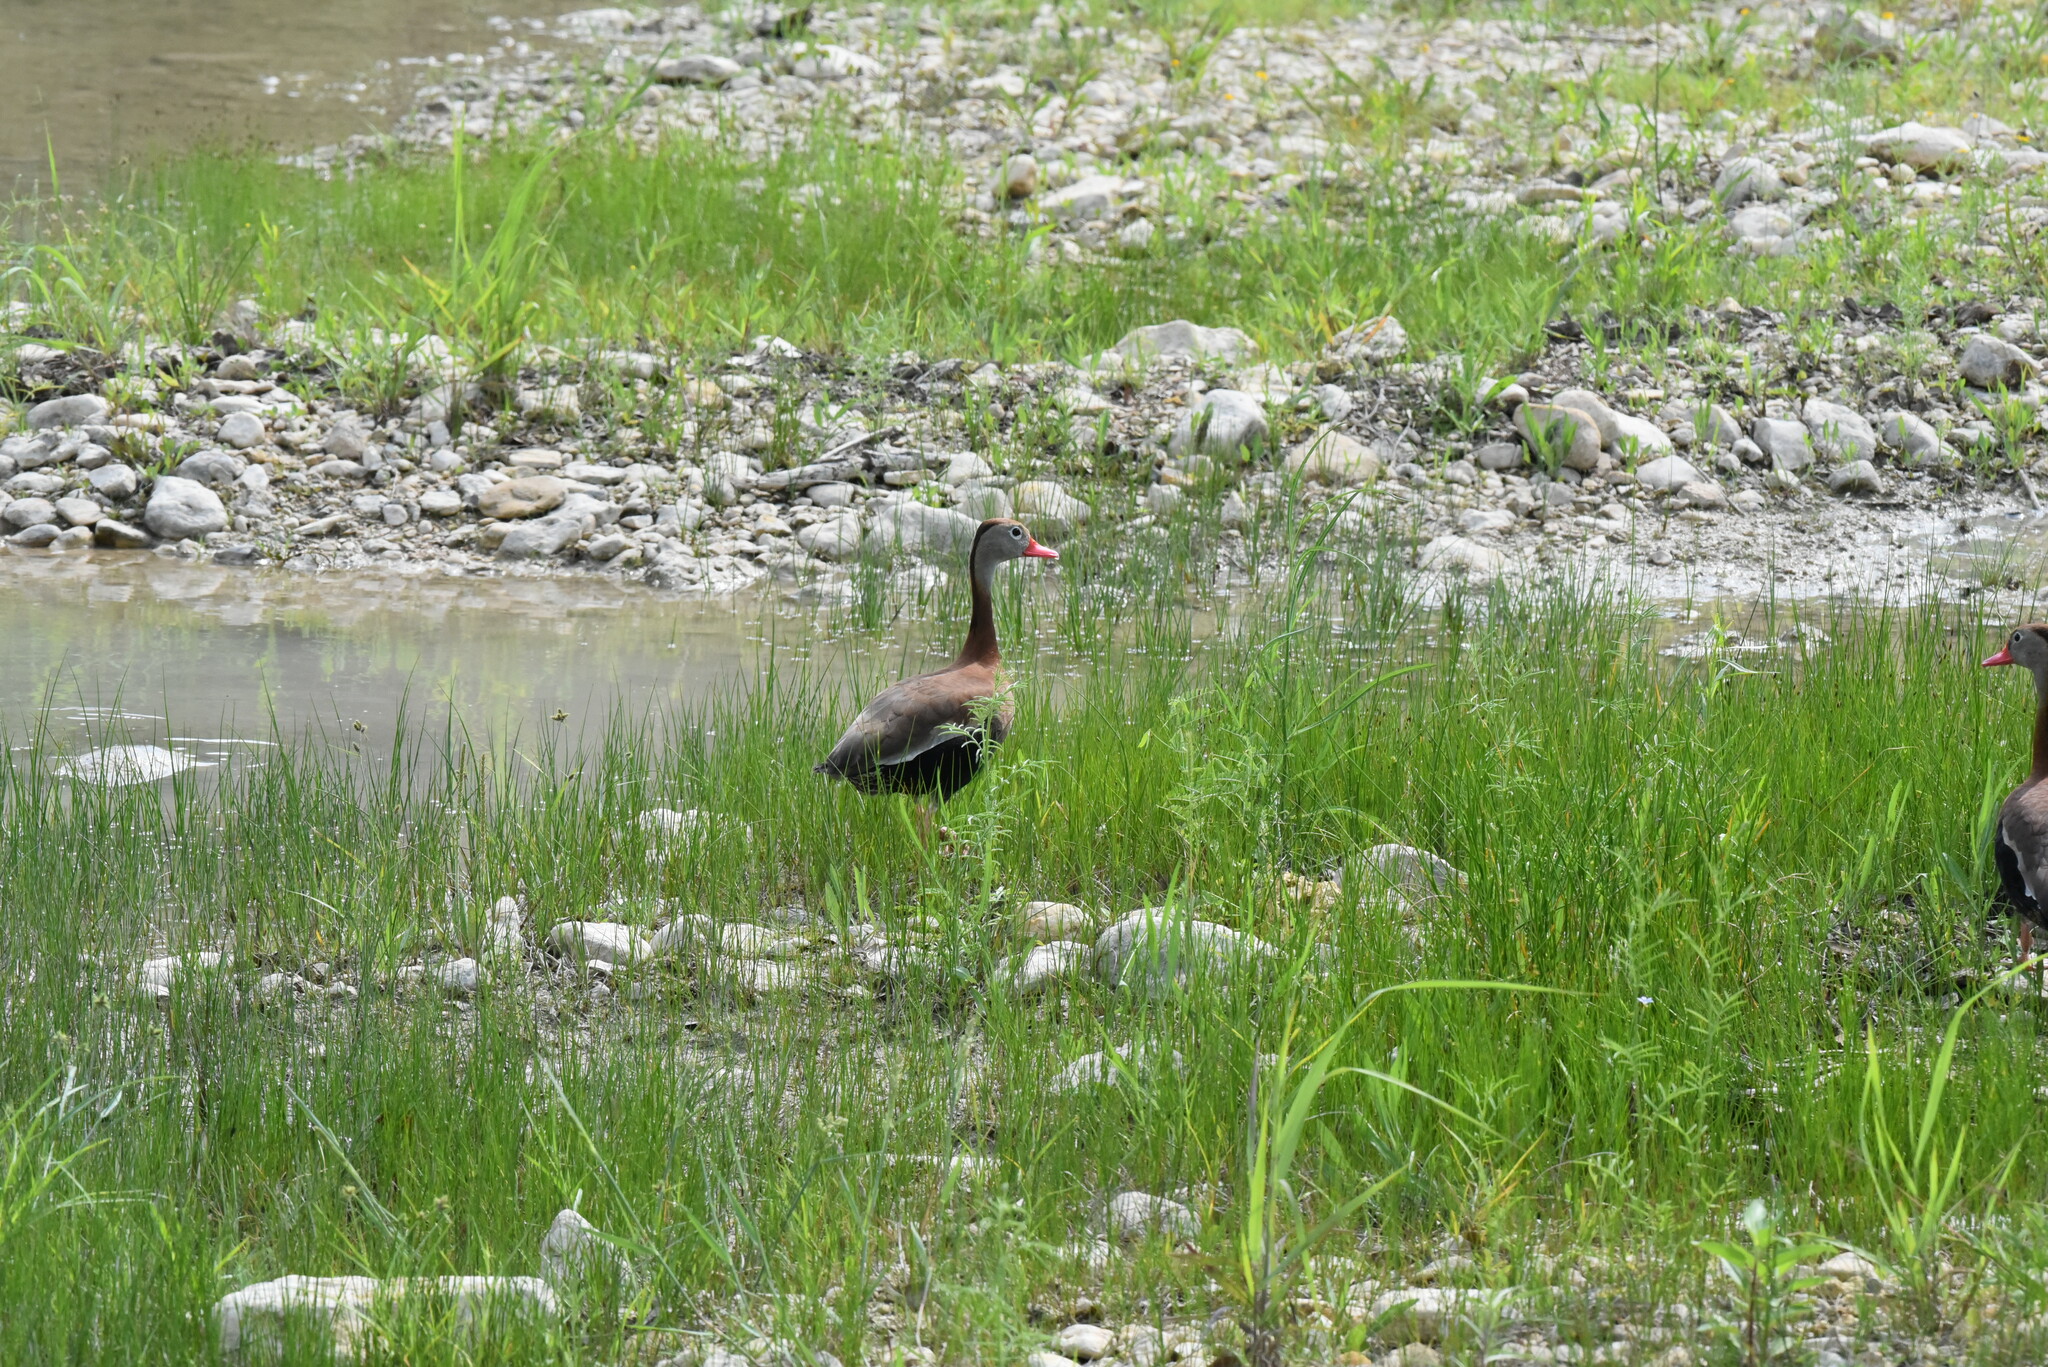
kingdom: Animalia
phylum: Chordata
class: Aves
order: Anseriformes
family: Anatidae
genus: Dendrocygna
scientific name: Dendrocygna autumnalis
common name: Black-bellied whistling duck
